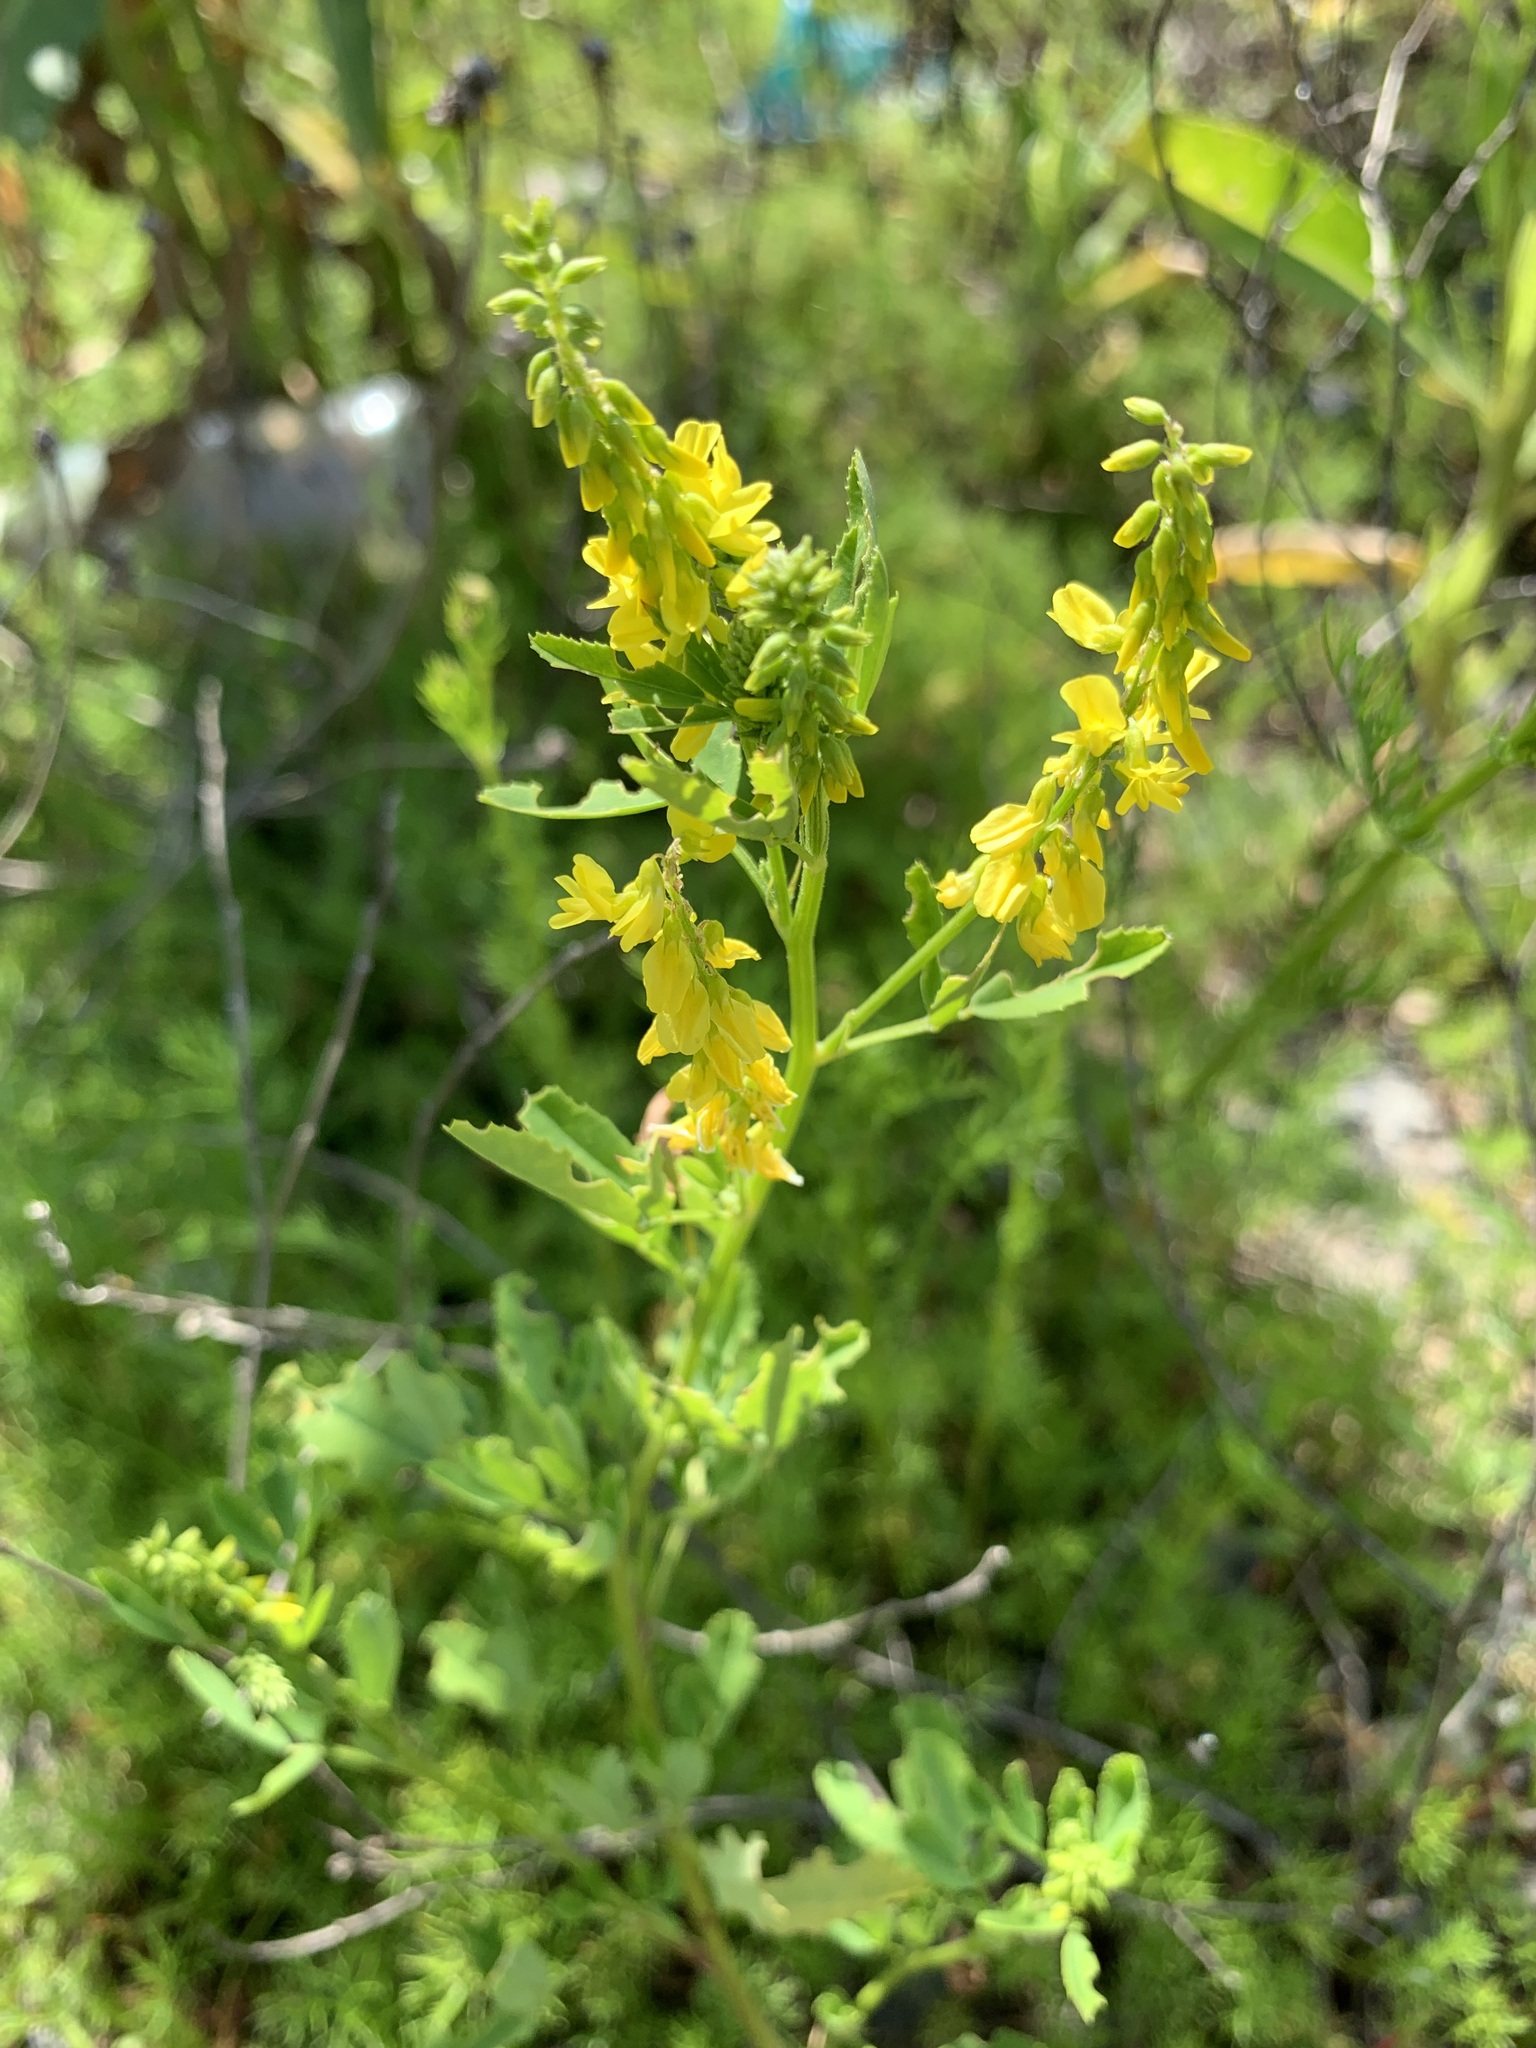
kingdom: Plantae
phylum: Tracheophyta
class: Magnoliopsida
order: Fabales
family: Fabaceae
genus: Melilotus
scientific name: Melilotus officinalis
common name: Sweetclover
